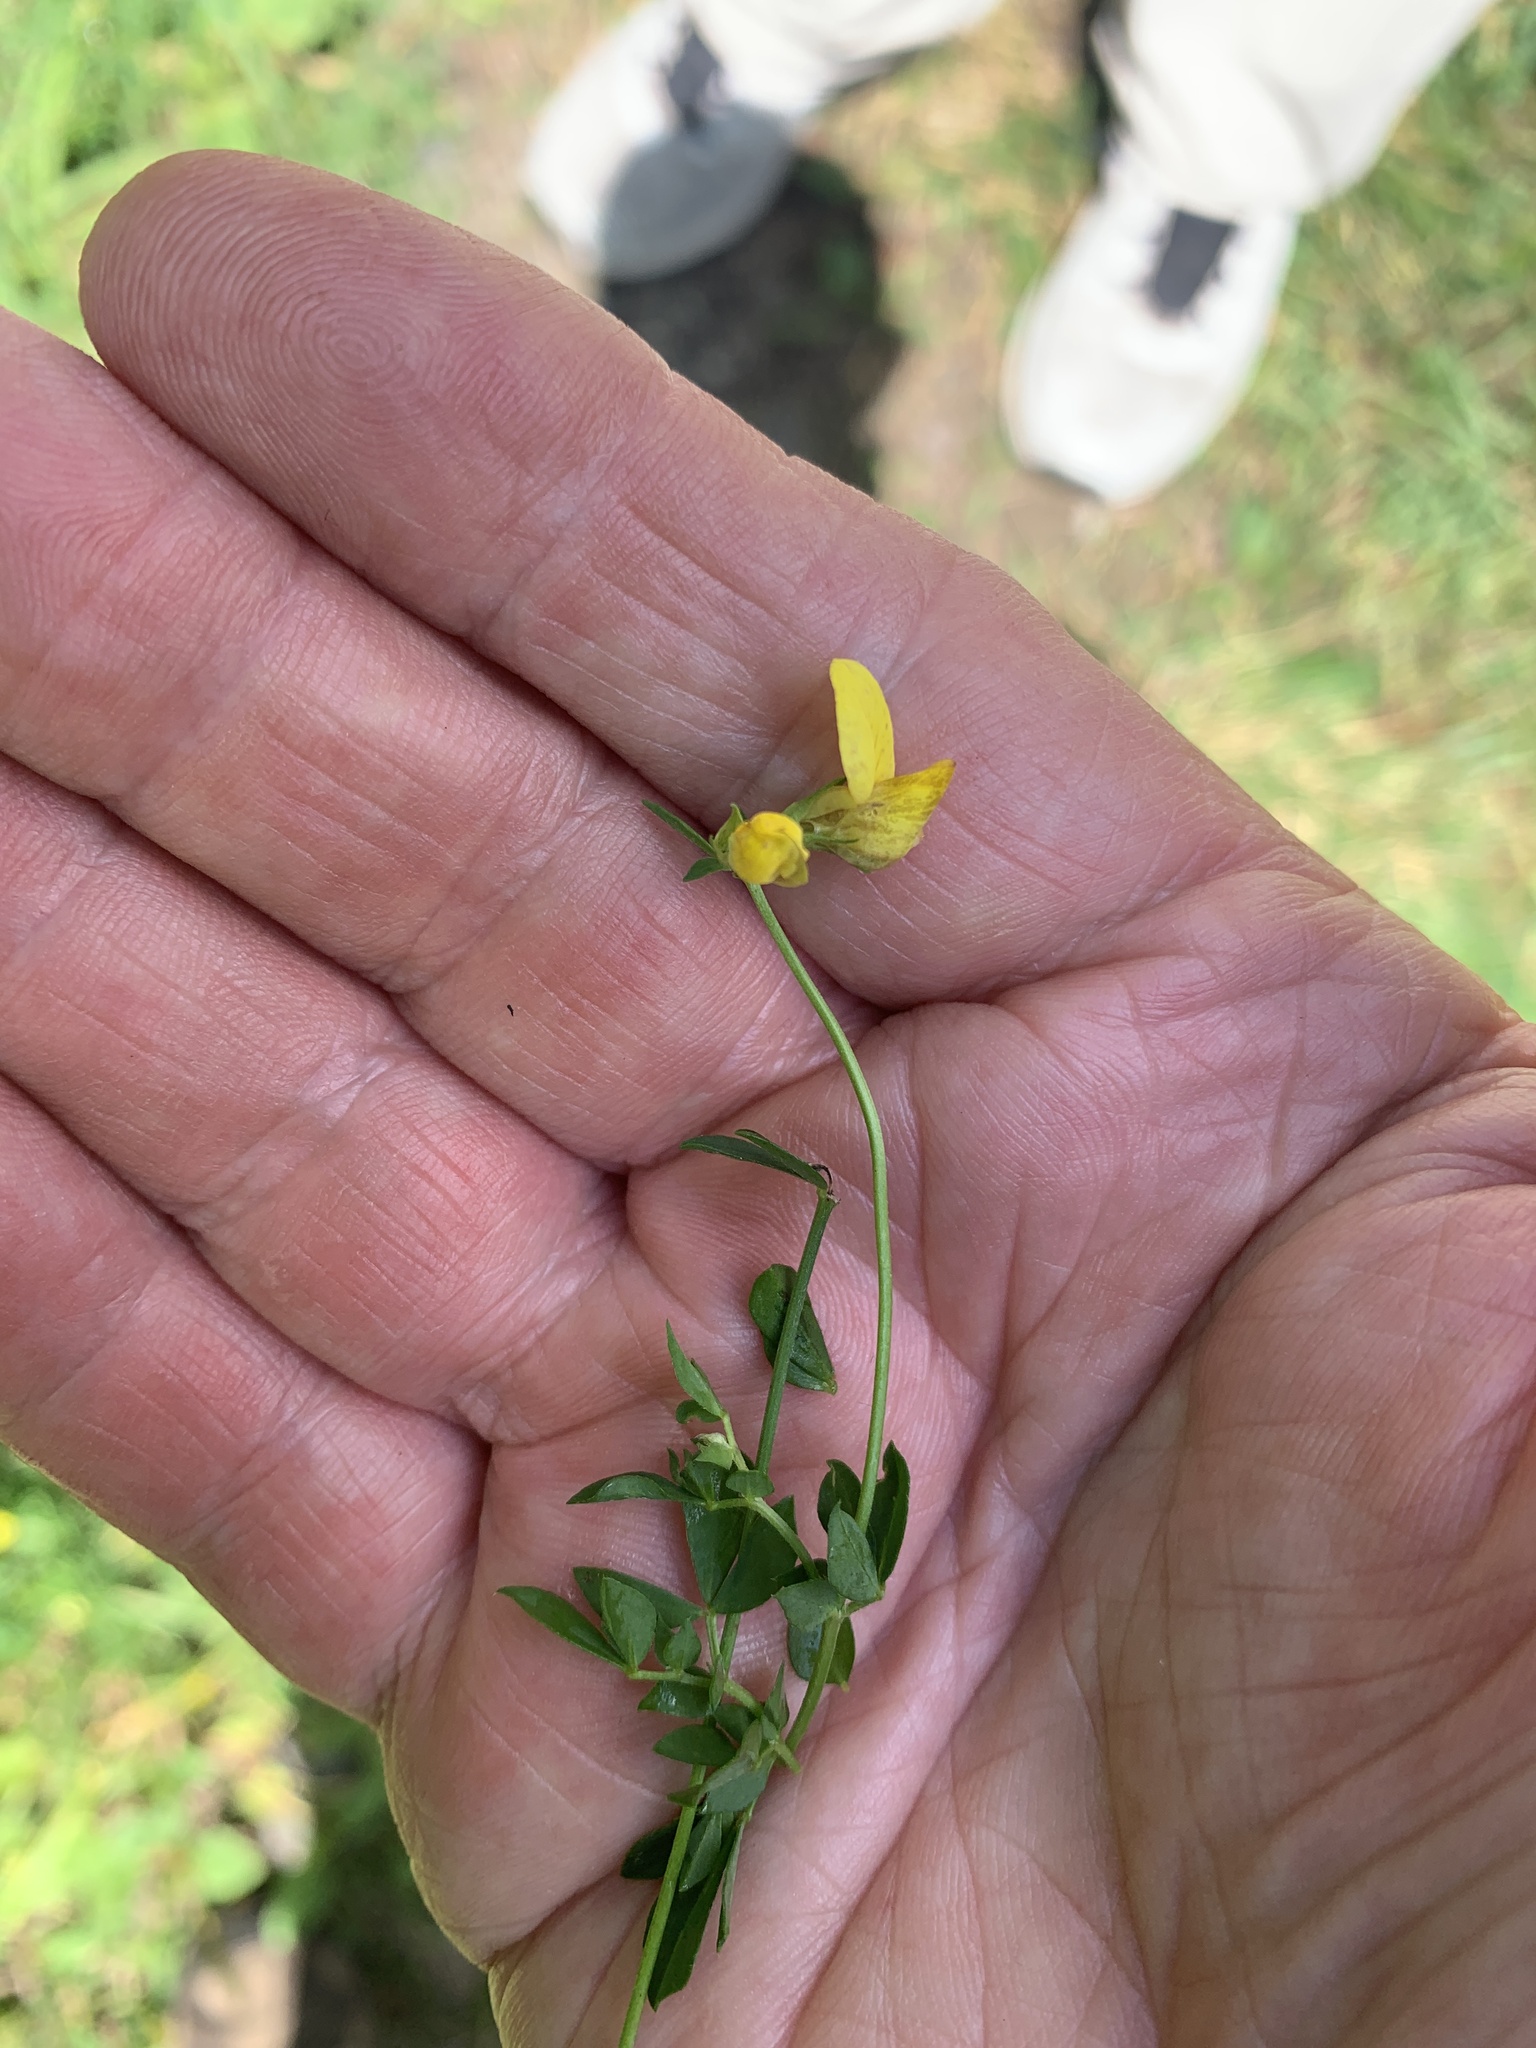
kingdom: Plantae
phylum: Tracheophyta
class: Magnoliopsida
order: Fabales
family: Fabaceae
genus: Lotus
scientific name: Lotus corniculatus
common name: Common bird's-foot-trefoil
